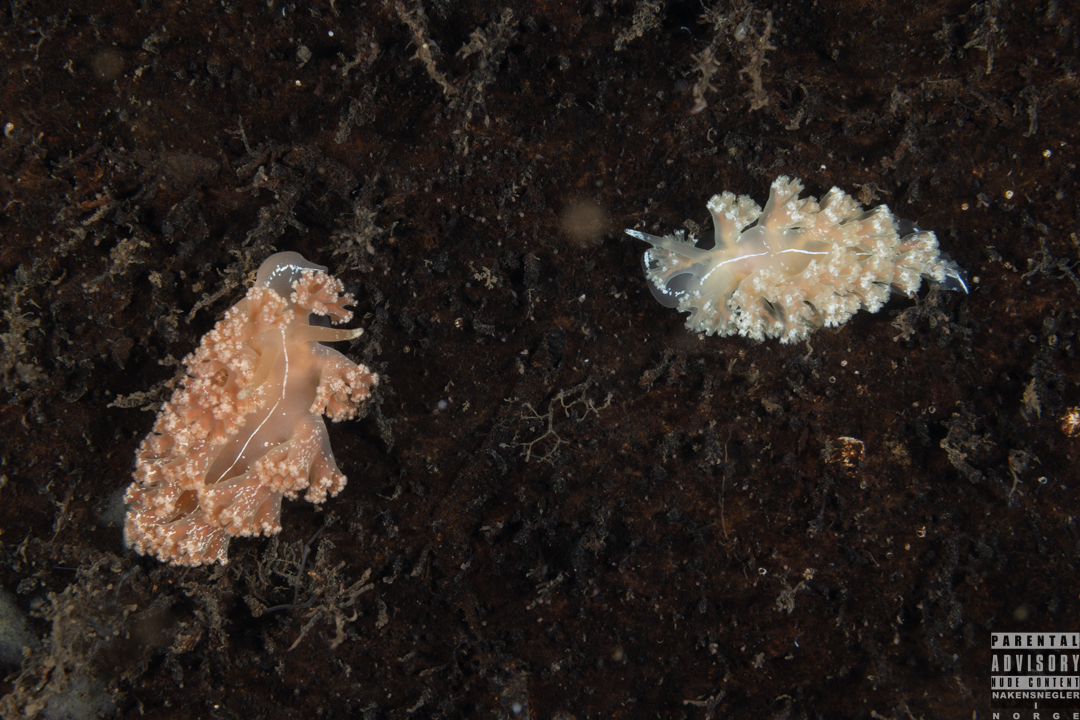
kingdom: Animalia
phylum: Mollusca
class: Gastropoda
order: Nudibranchia
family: Heroidae
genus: Hero
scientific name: Hero formosa
